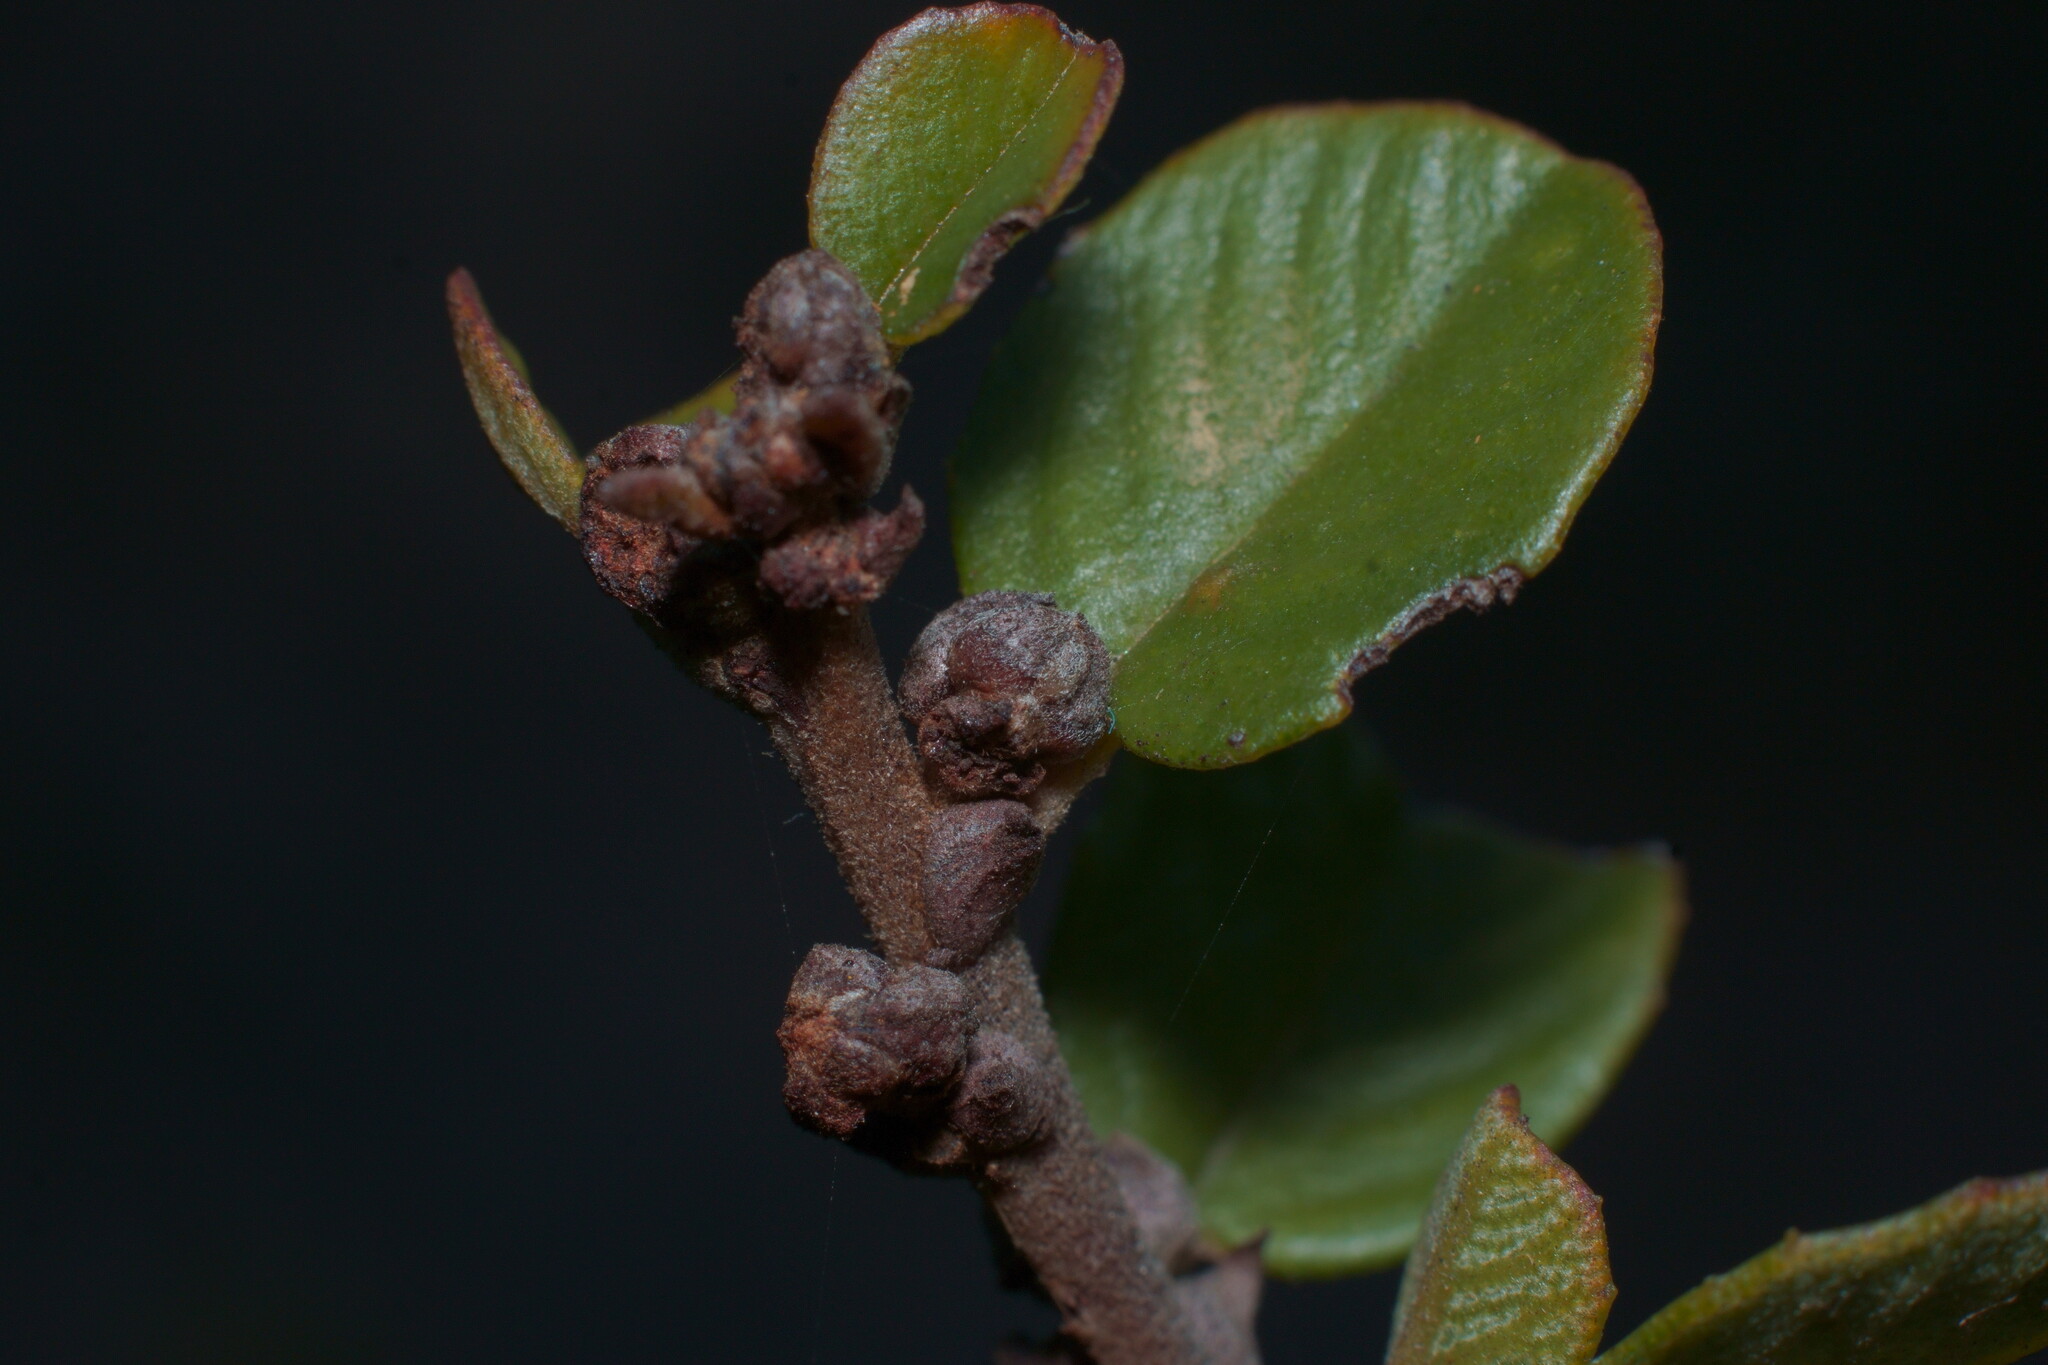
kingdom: Plantae
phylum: Tracheophyta
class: Magnoliopsida
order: Rosales
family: Rhamnaceae
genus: Ceanothus
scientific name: Ceanothus verrucosus
